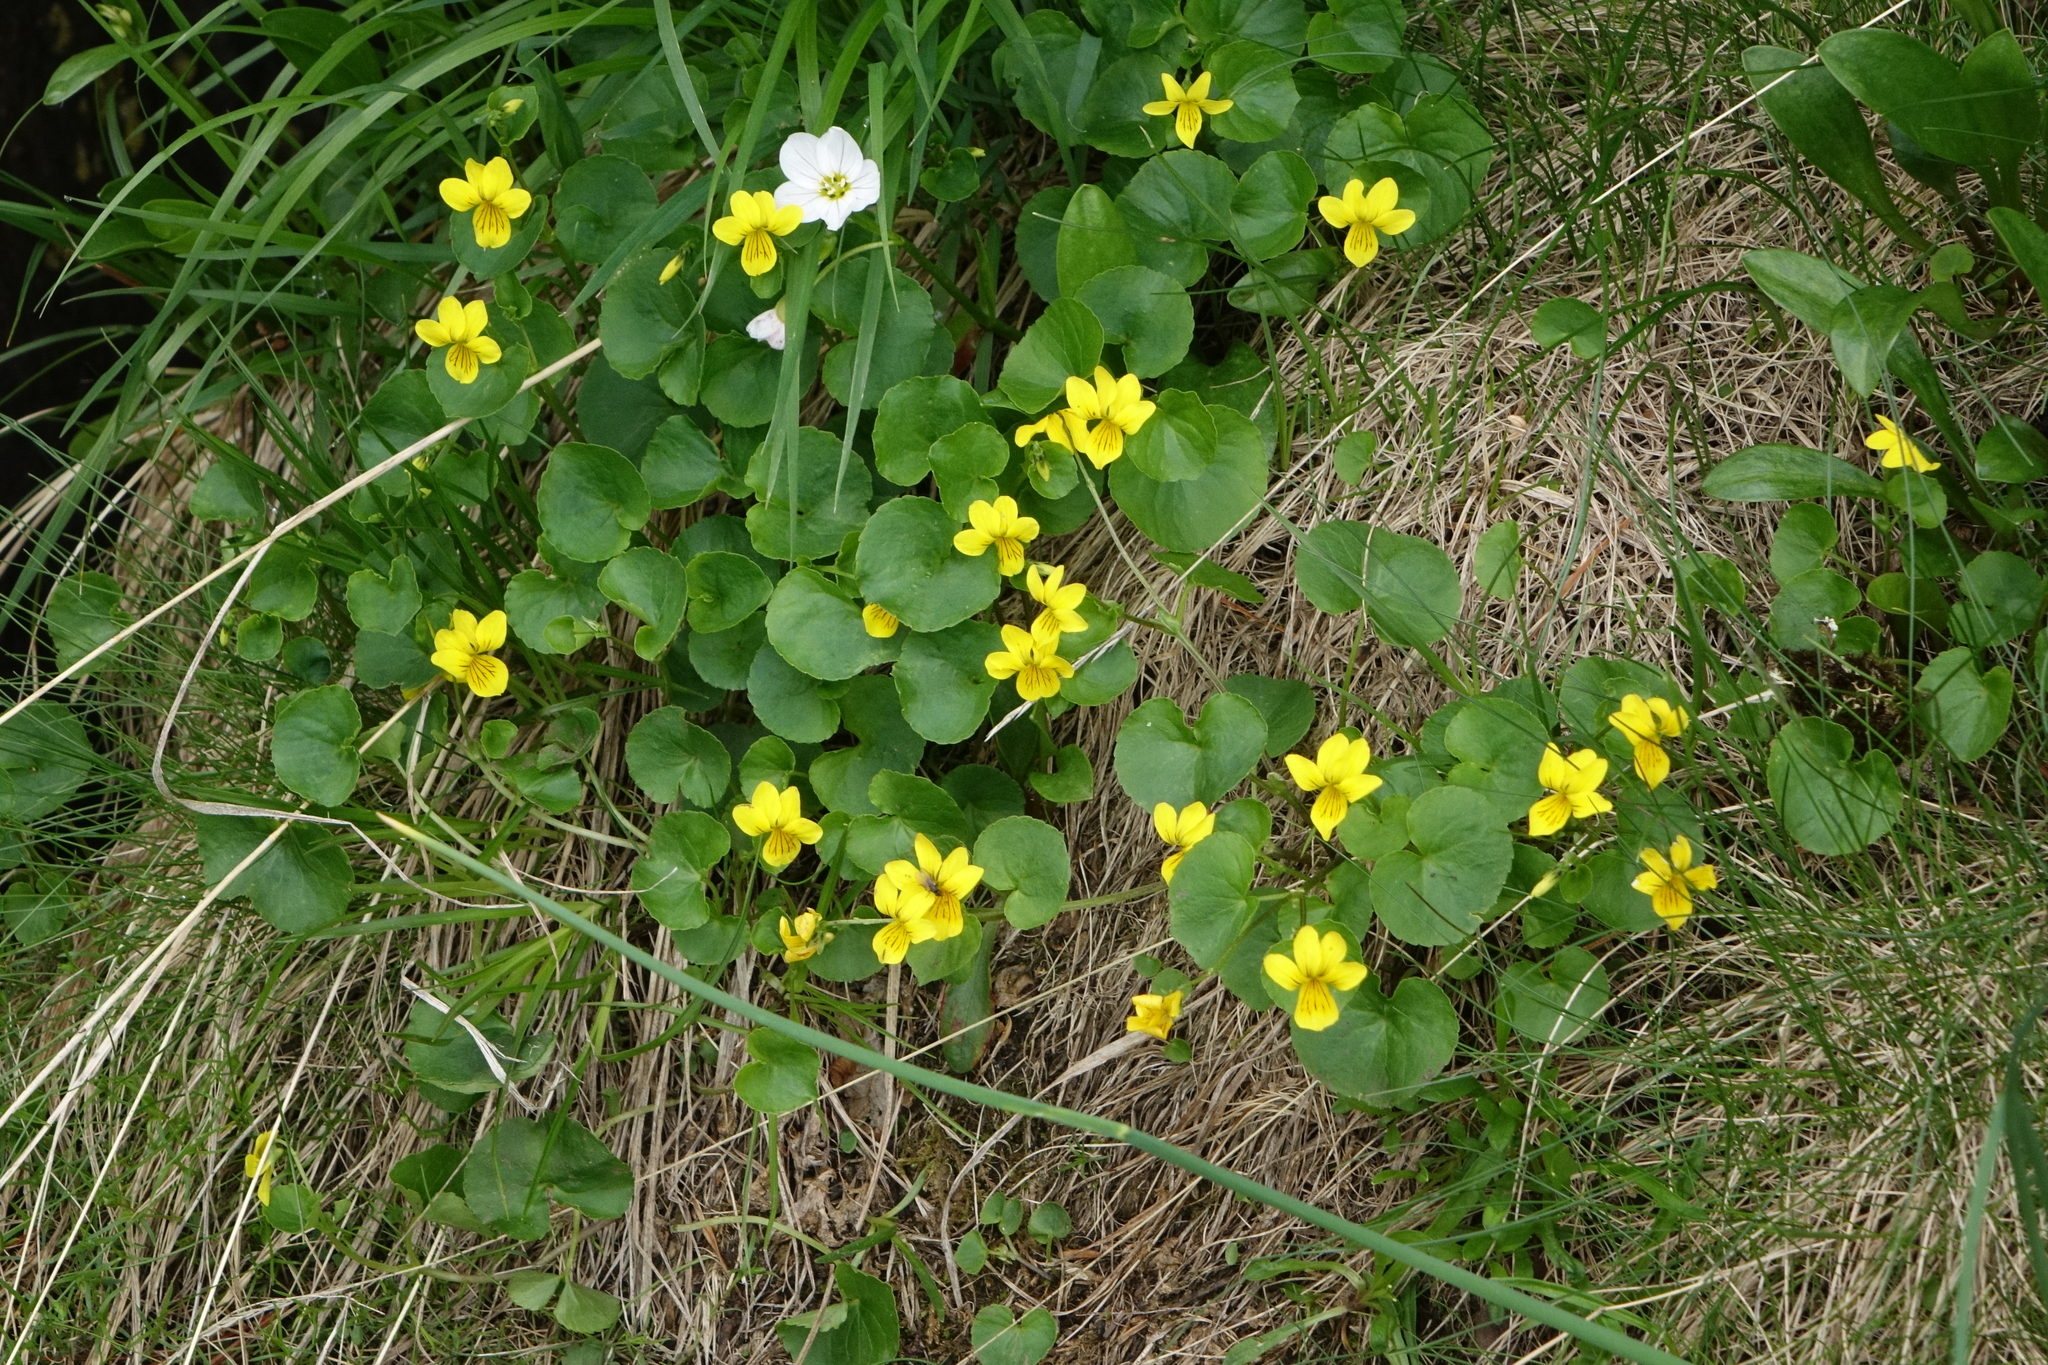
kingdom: Plantae
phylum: Tracheophyta
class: Magnoliopsida
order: Malpighiales
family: Violaceae
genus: Viola
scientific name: Viola biflora
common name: Alpine yellow violet
